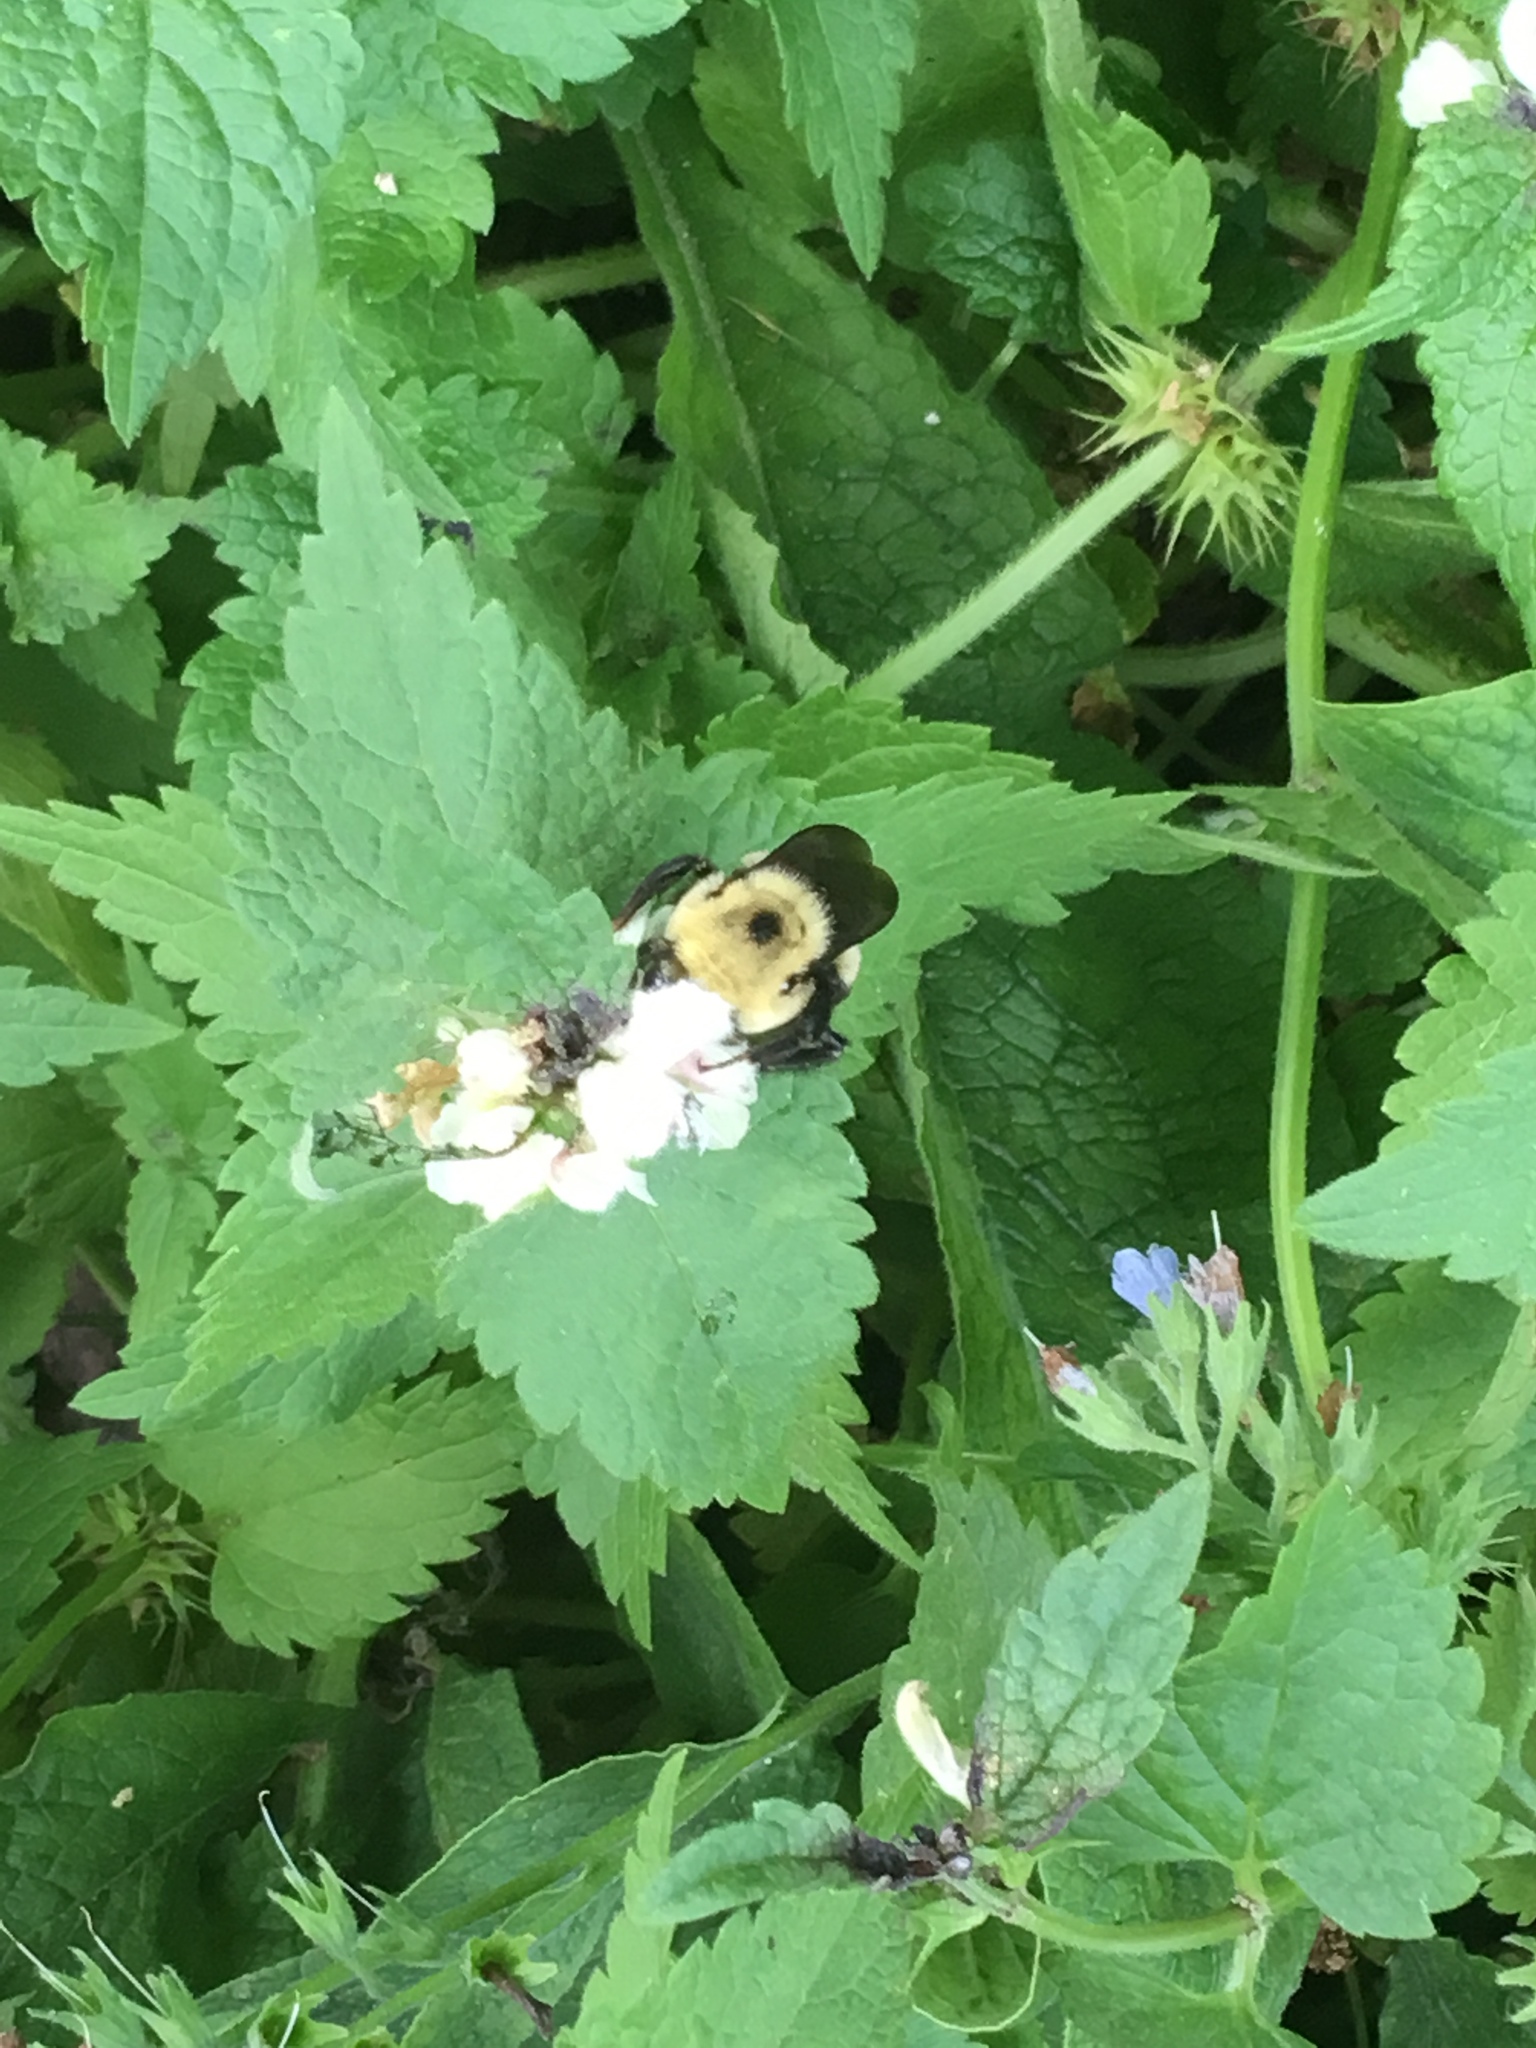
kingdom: Animalia
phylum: Arthropoda
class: Insecta
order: Hymenoptera
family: Apidae
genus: Bombus
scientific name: Bombus
